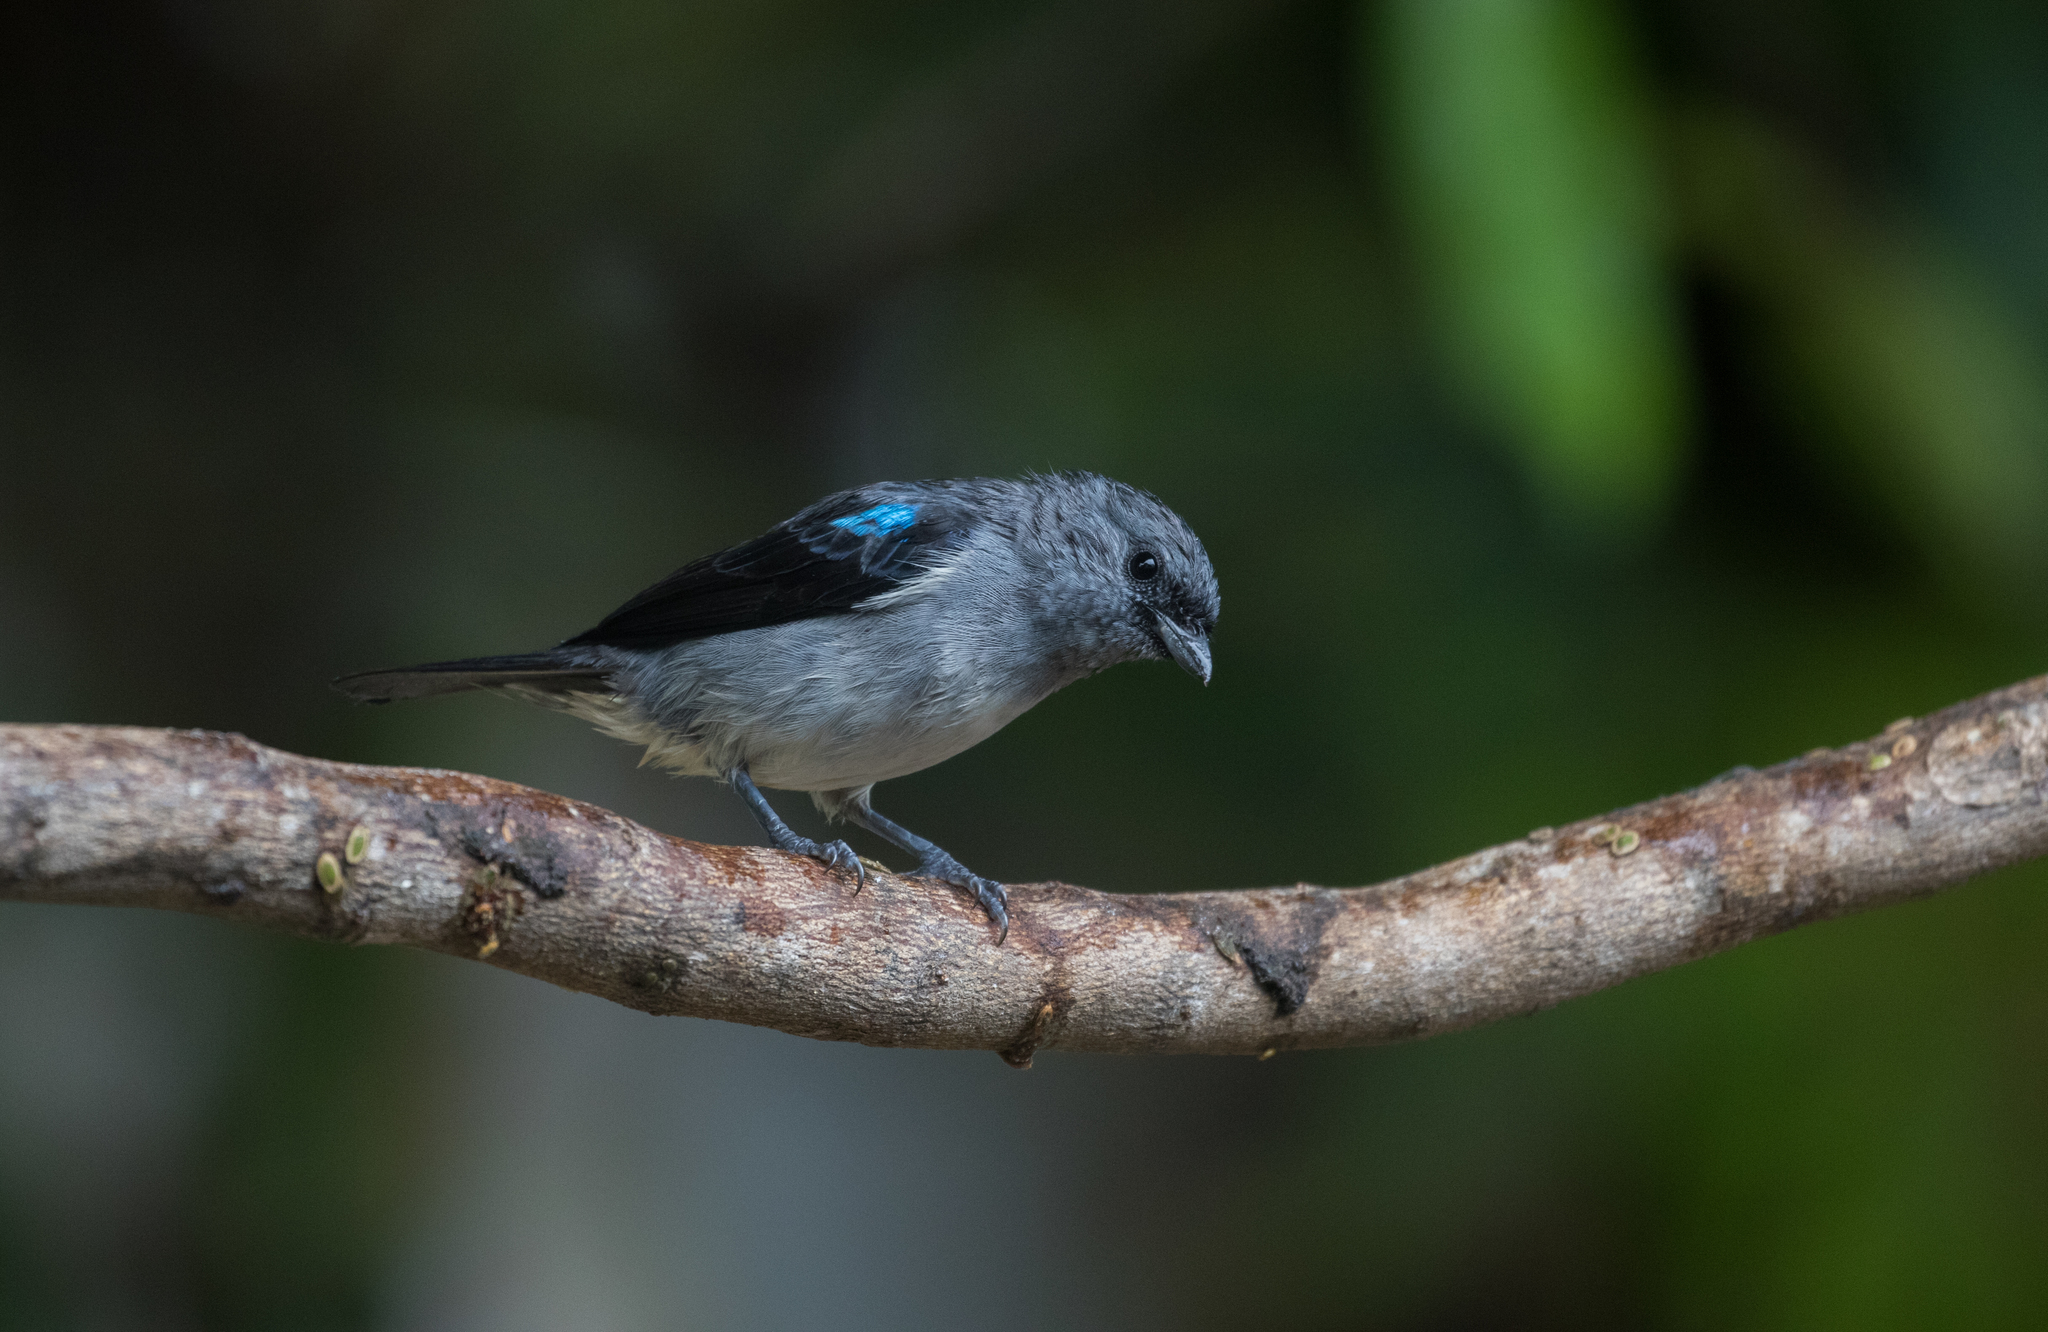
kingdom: Animalia
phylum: Chordata
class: Aves
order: Passeriformes
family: Thraupidae
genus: Tangara
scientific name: Tangara inornata
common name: Plain-colored tanager
